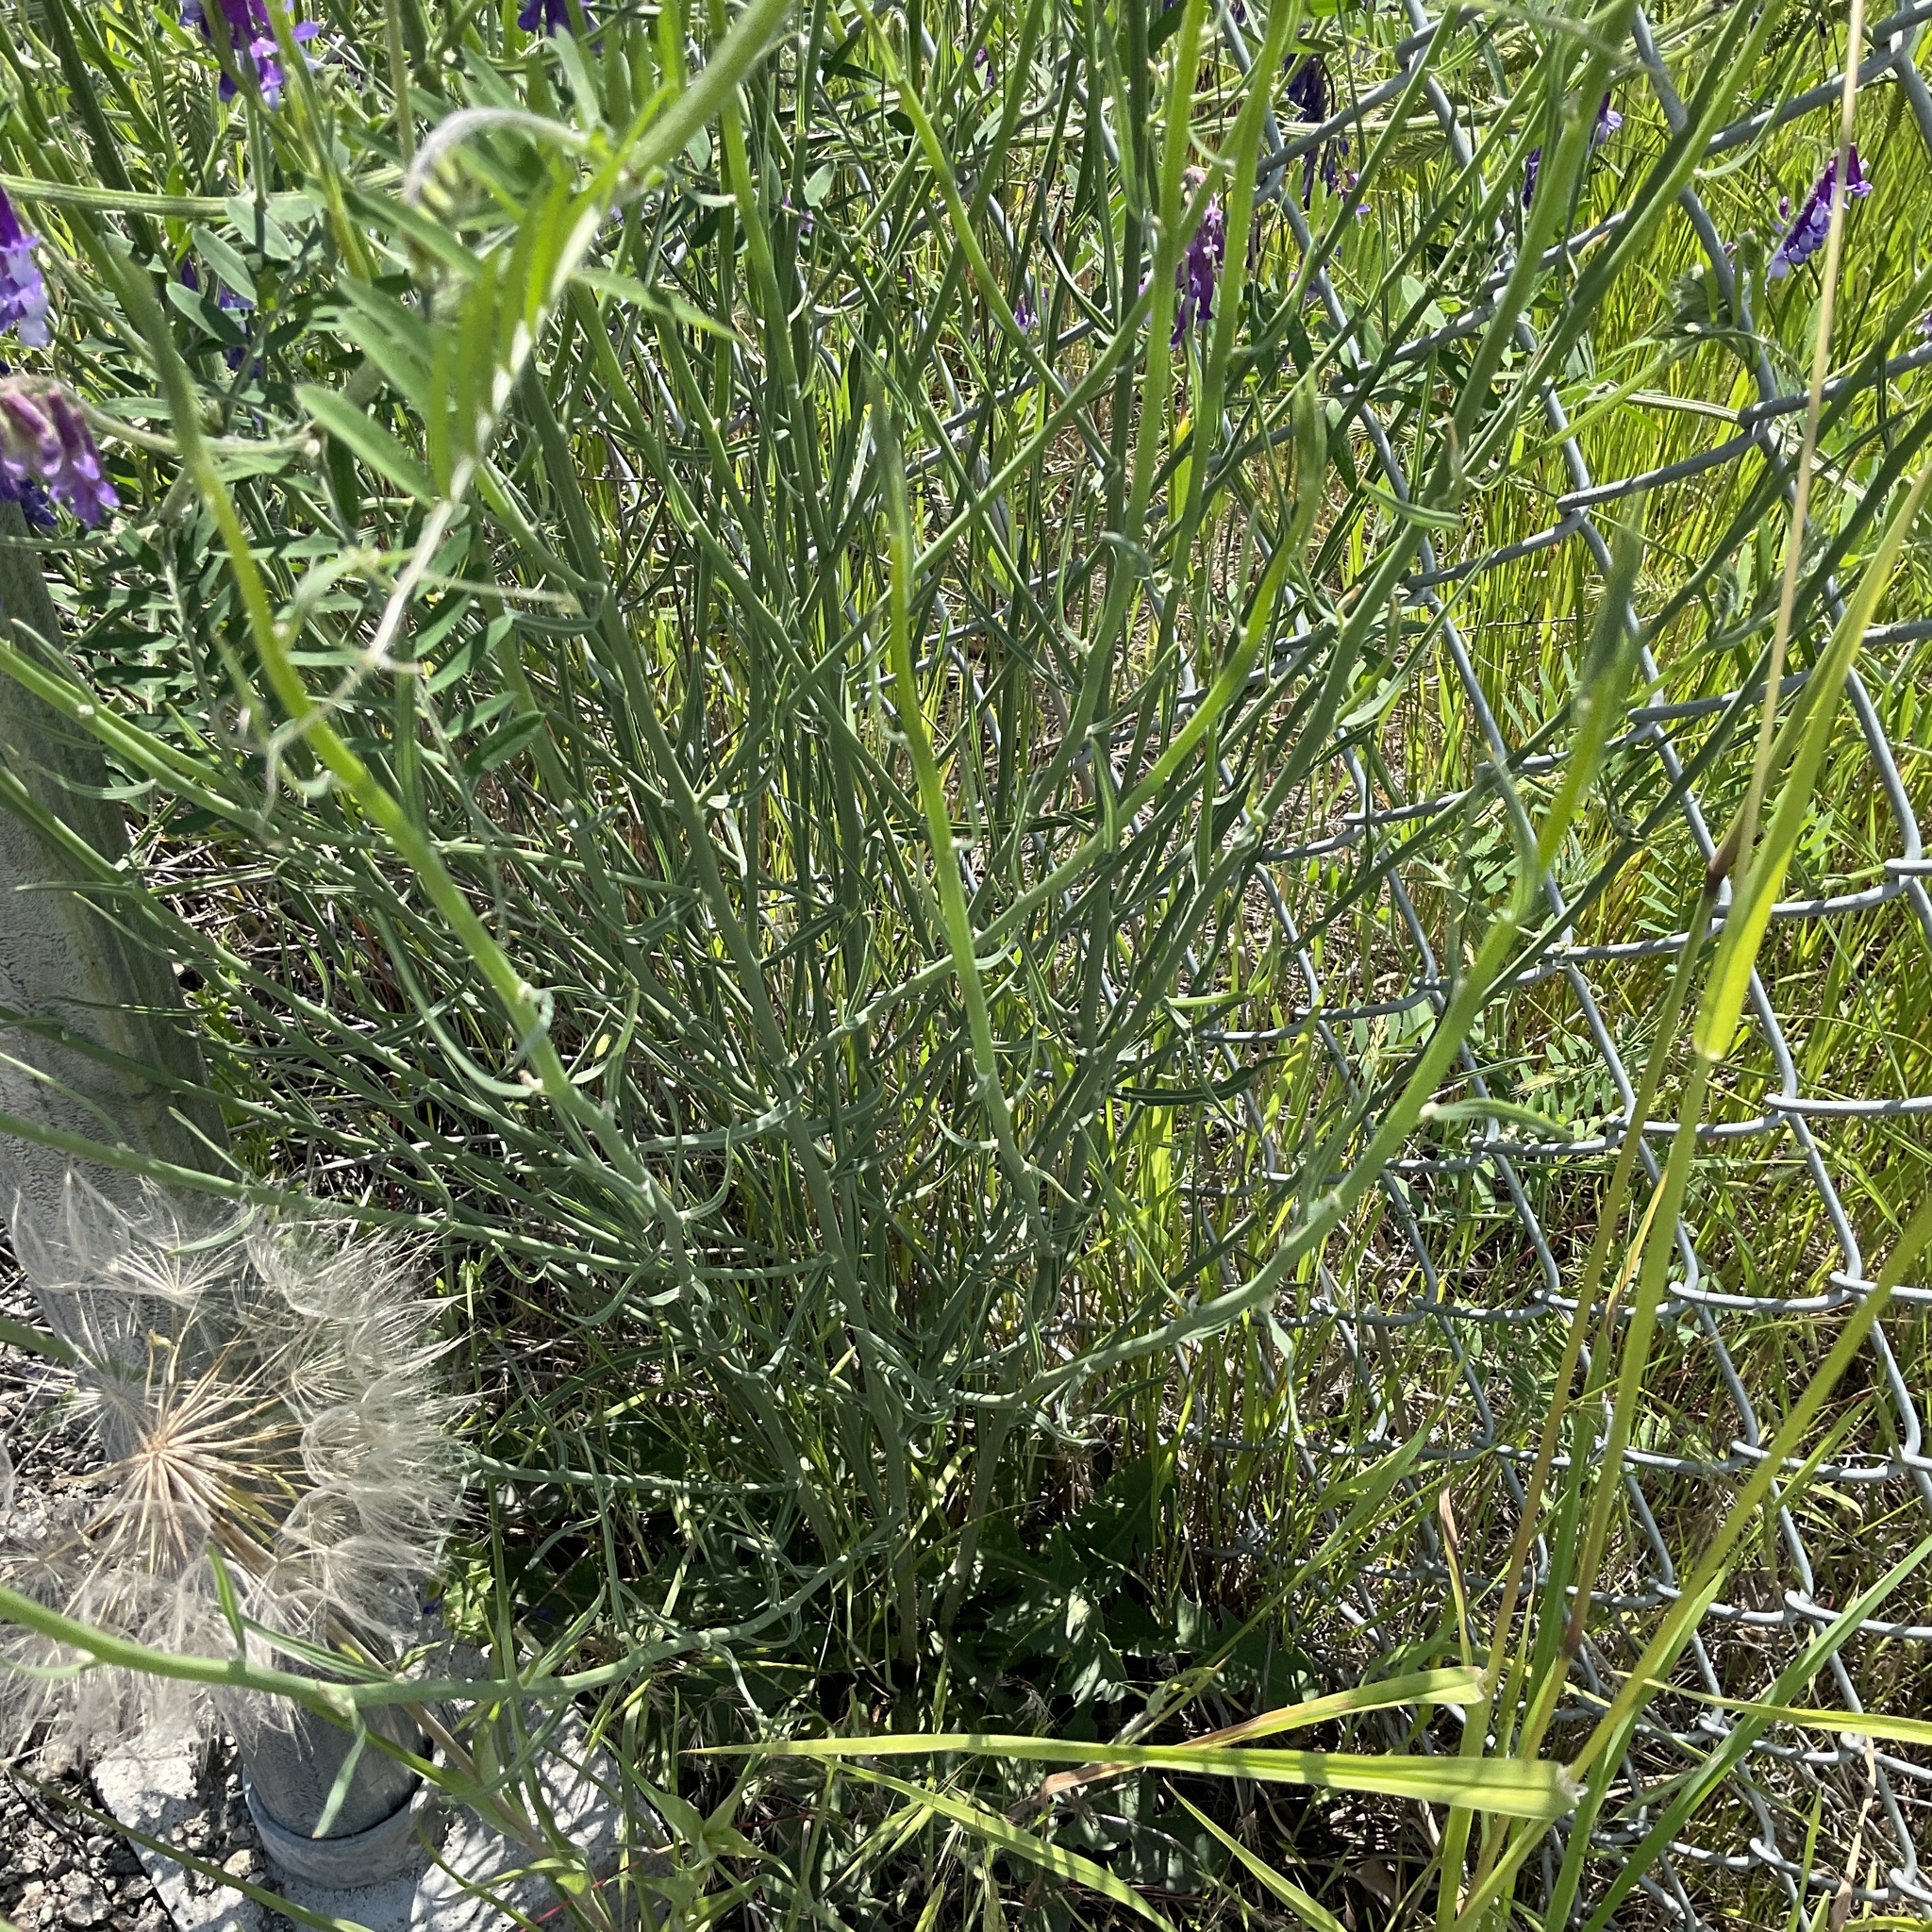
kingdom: Plantae
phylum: Tracheophyta
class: Magnoliopsida
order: Asterales
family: Asteraceae
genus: Chondrilla
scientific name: Chondrilla juncea
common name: Skeleton weed
